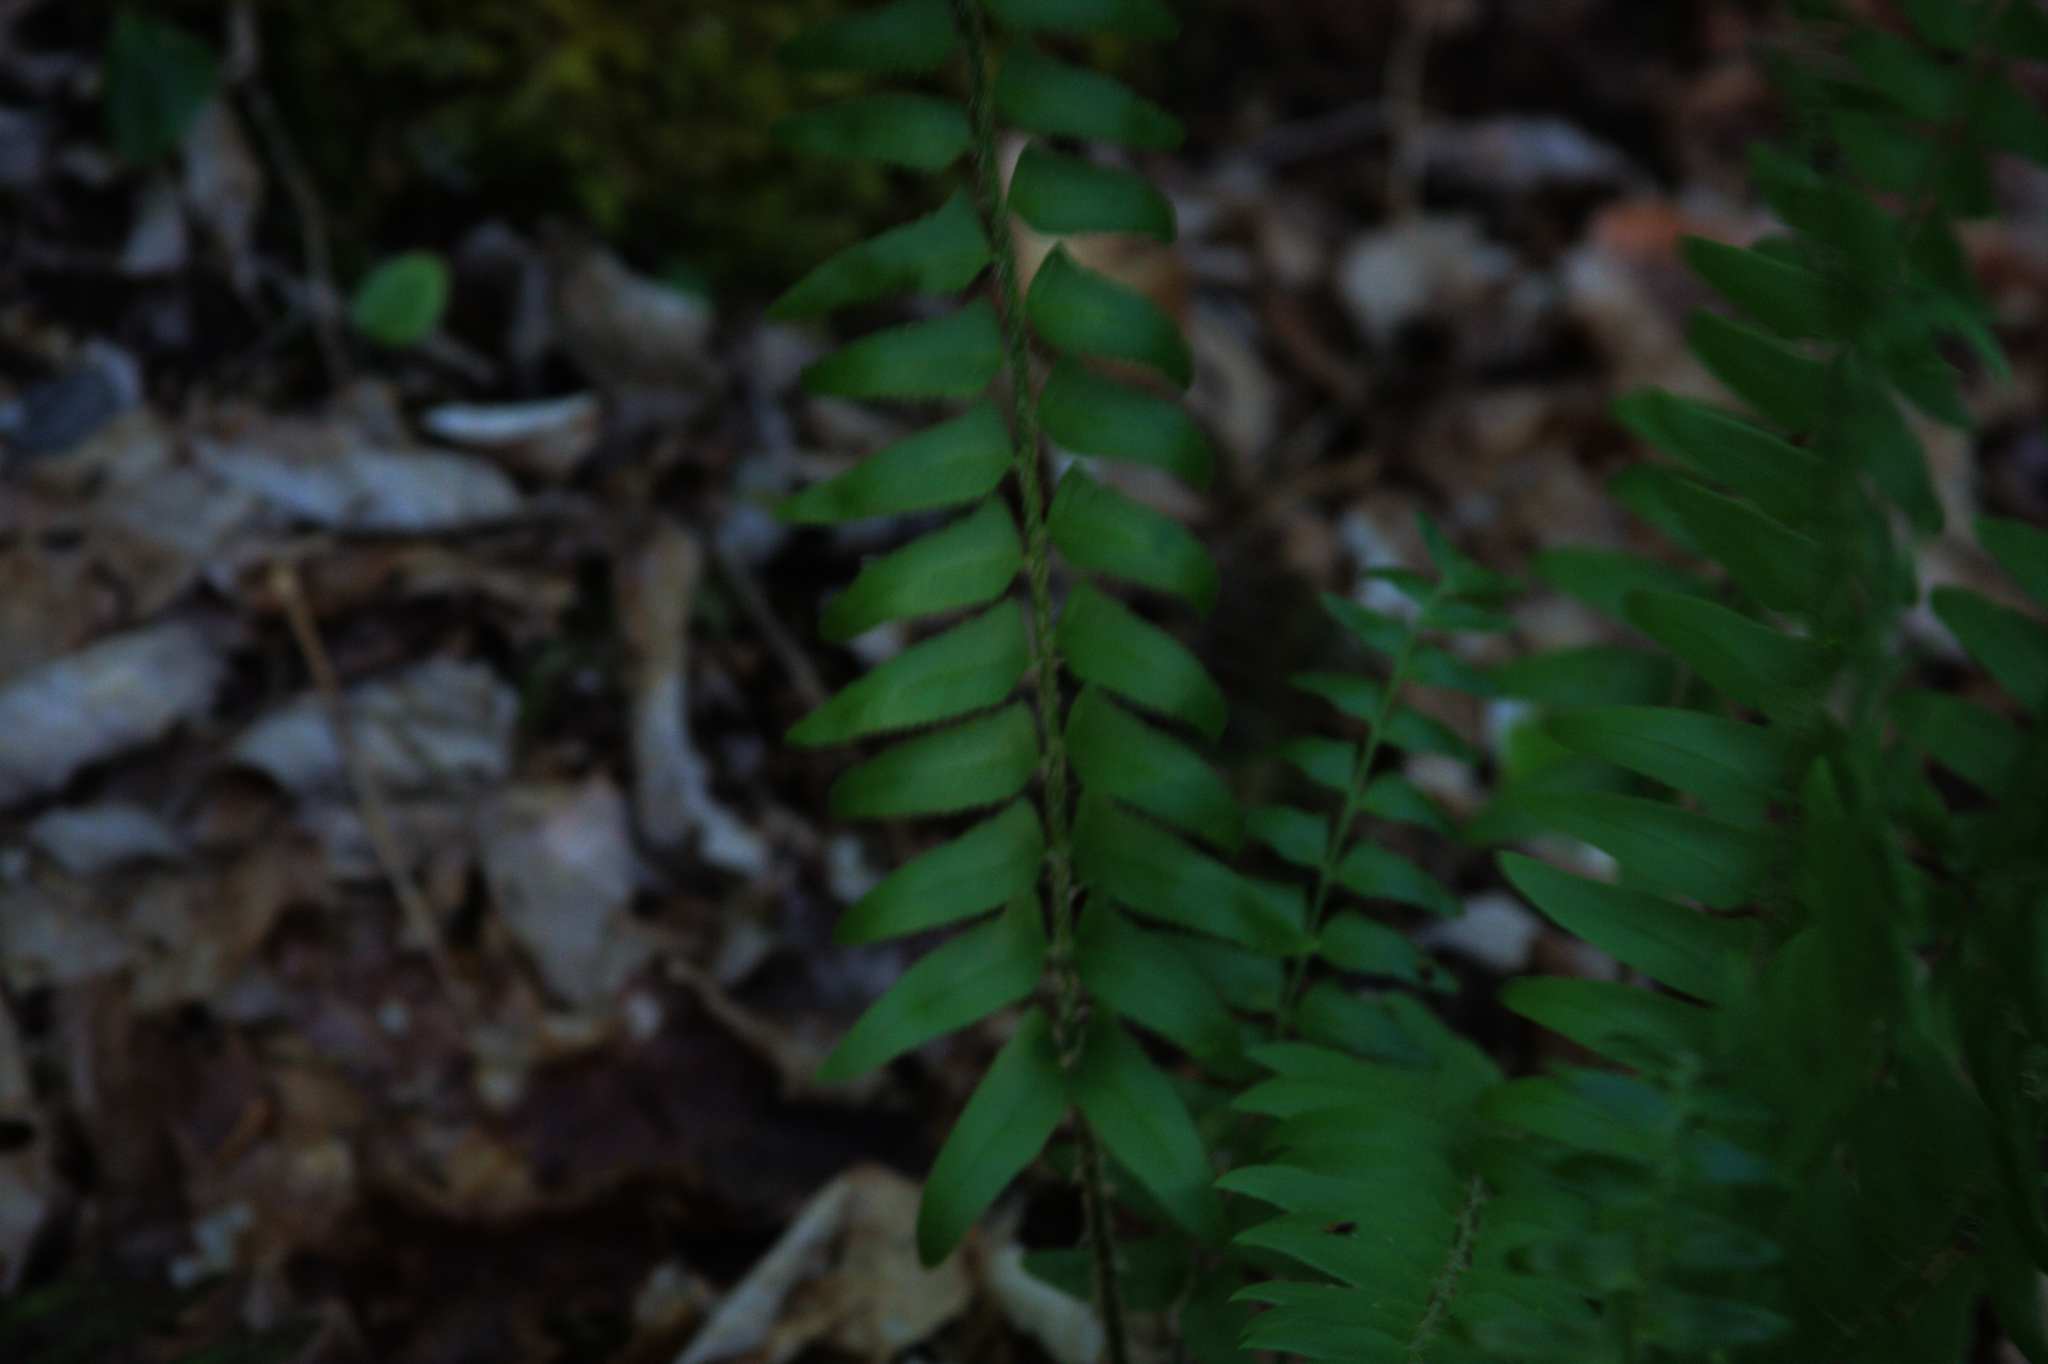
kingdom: Plantae
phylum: Tracheophyta
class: Polypodiopsida
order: Polypodiales
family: Dryopteridaceae
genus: Polystichum
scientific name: Polystichum acrostichoides
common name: Christmas fern
